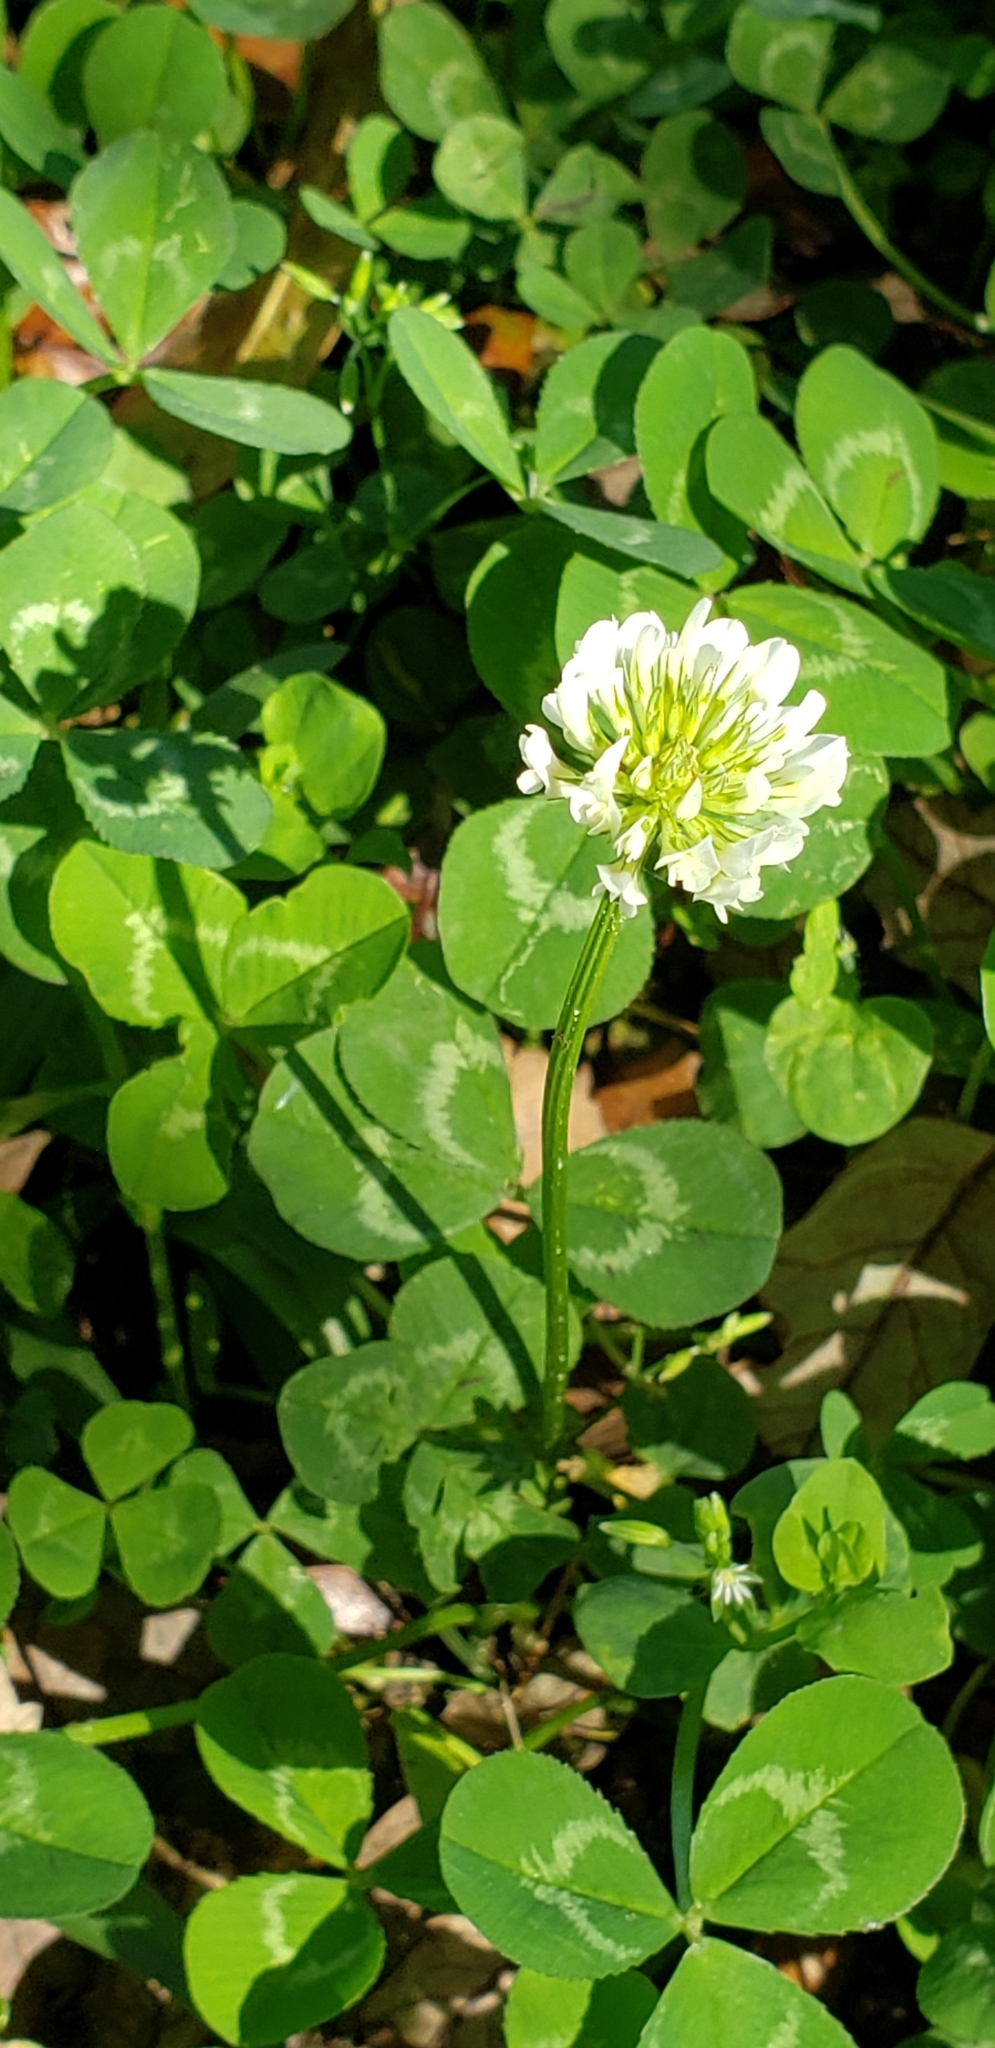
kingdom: Plantae
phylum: Tracheophyta
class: Magnoliopsida
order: Fabales
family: Fabaceae
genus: Trifolium
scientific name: Trifolium repens
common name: White clover
